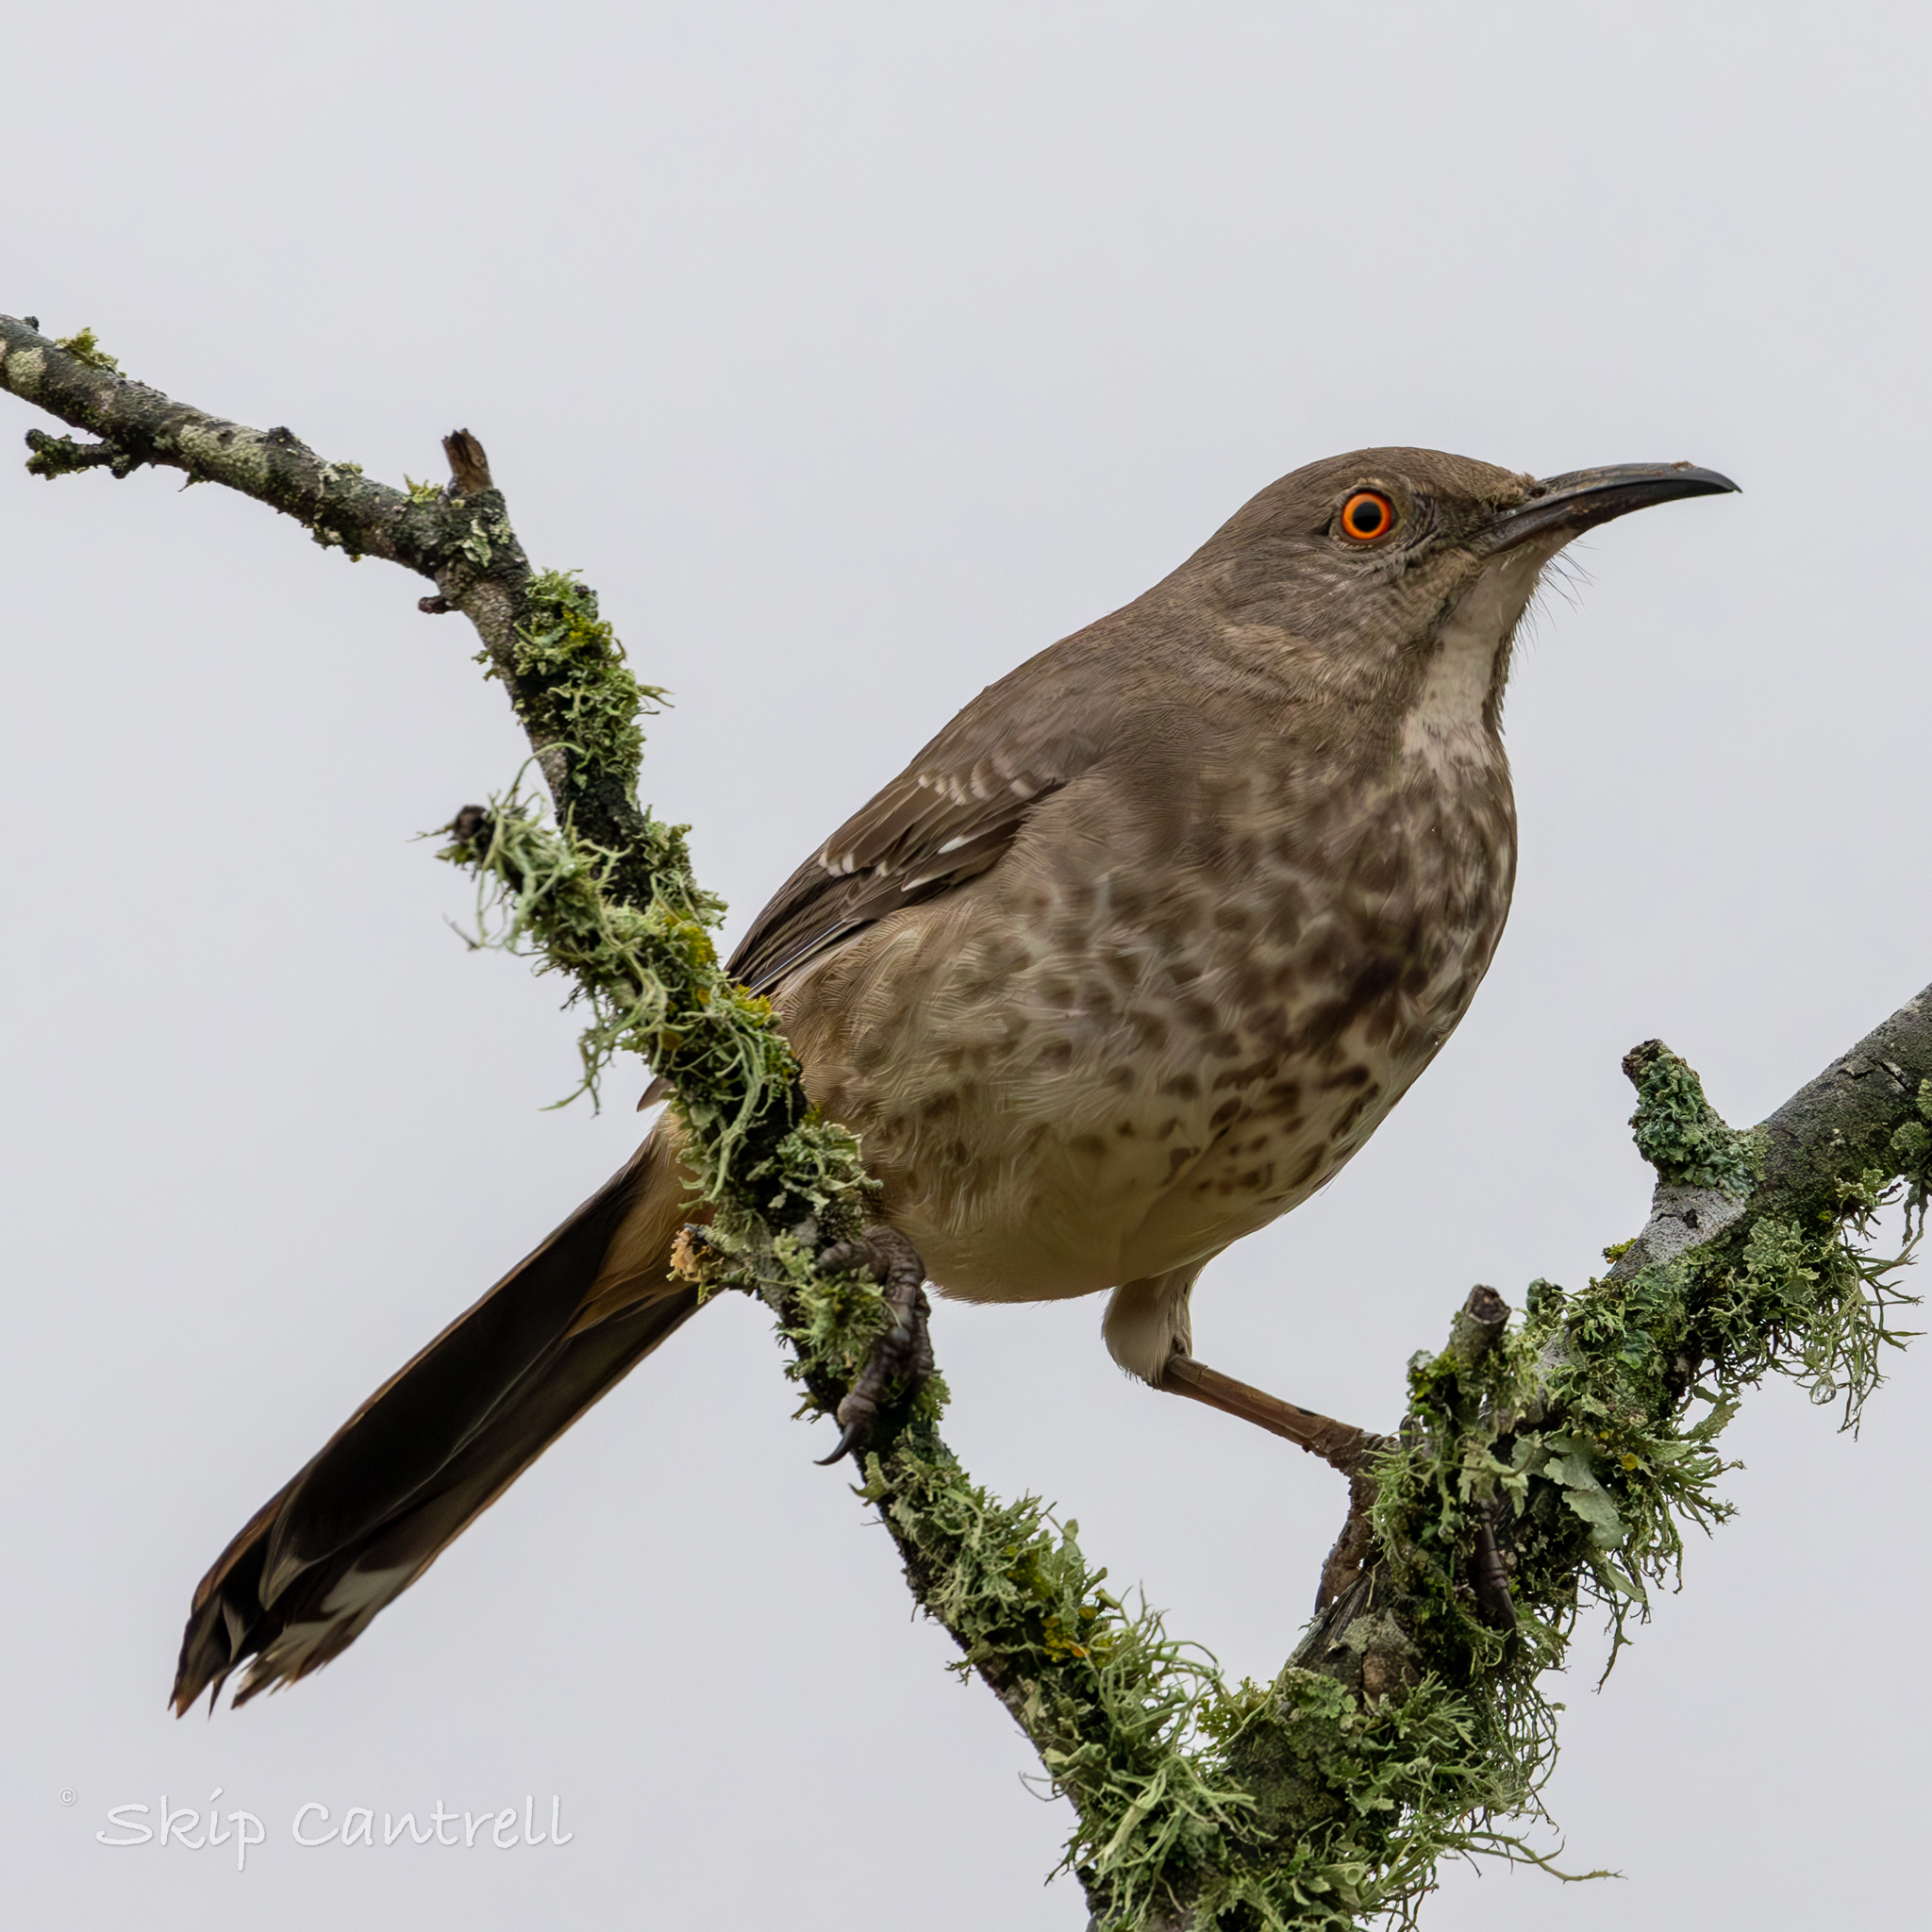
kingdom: Animalia
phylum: Chordata
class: Aves
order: Passeriformes
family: Mimidae
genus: Toxostoma
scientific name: Toxostoma curvirostre
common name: Curve-billed thrasher
